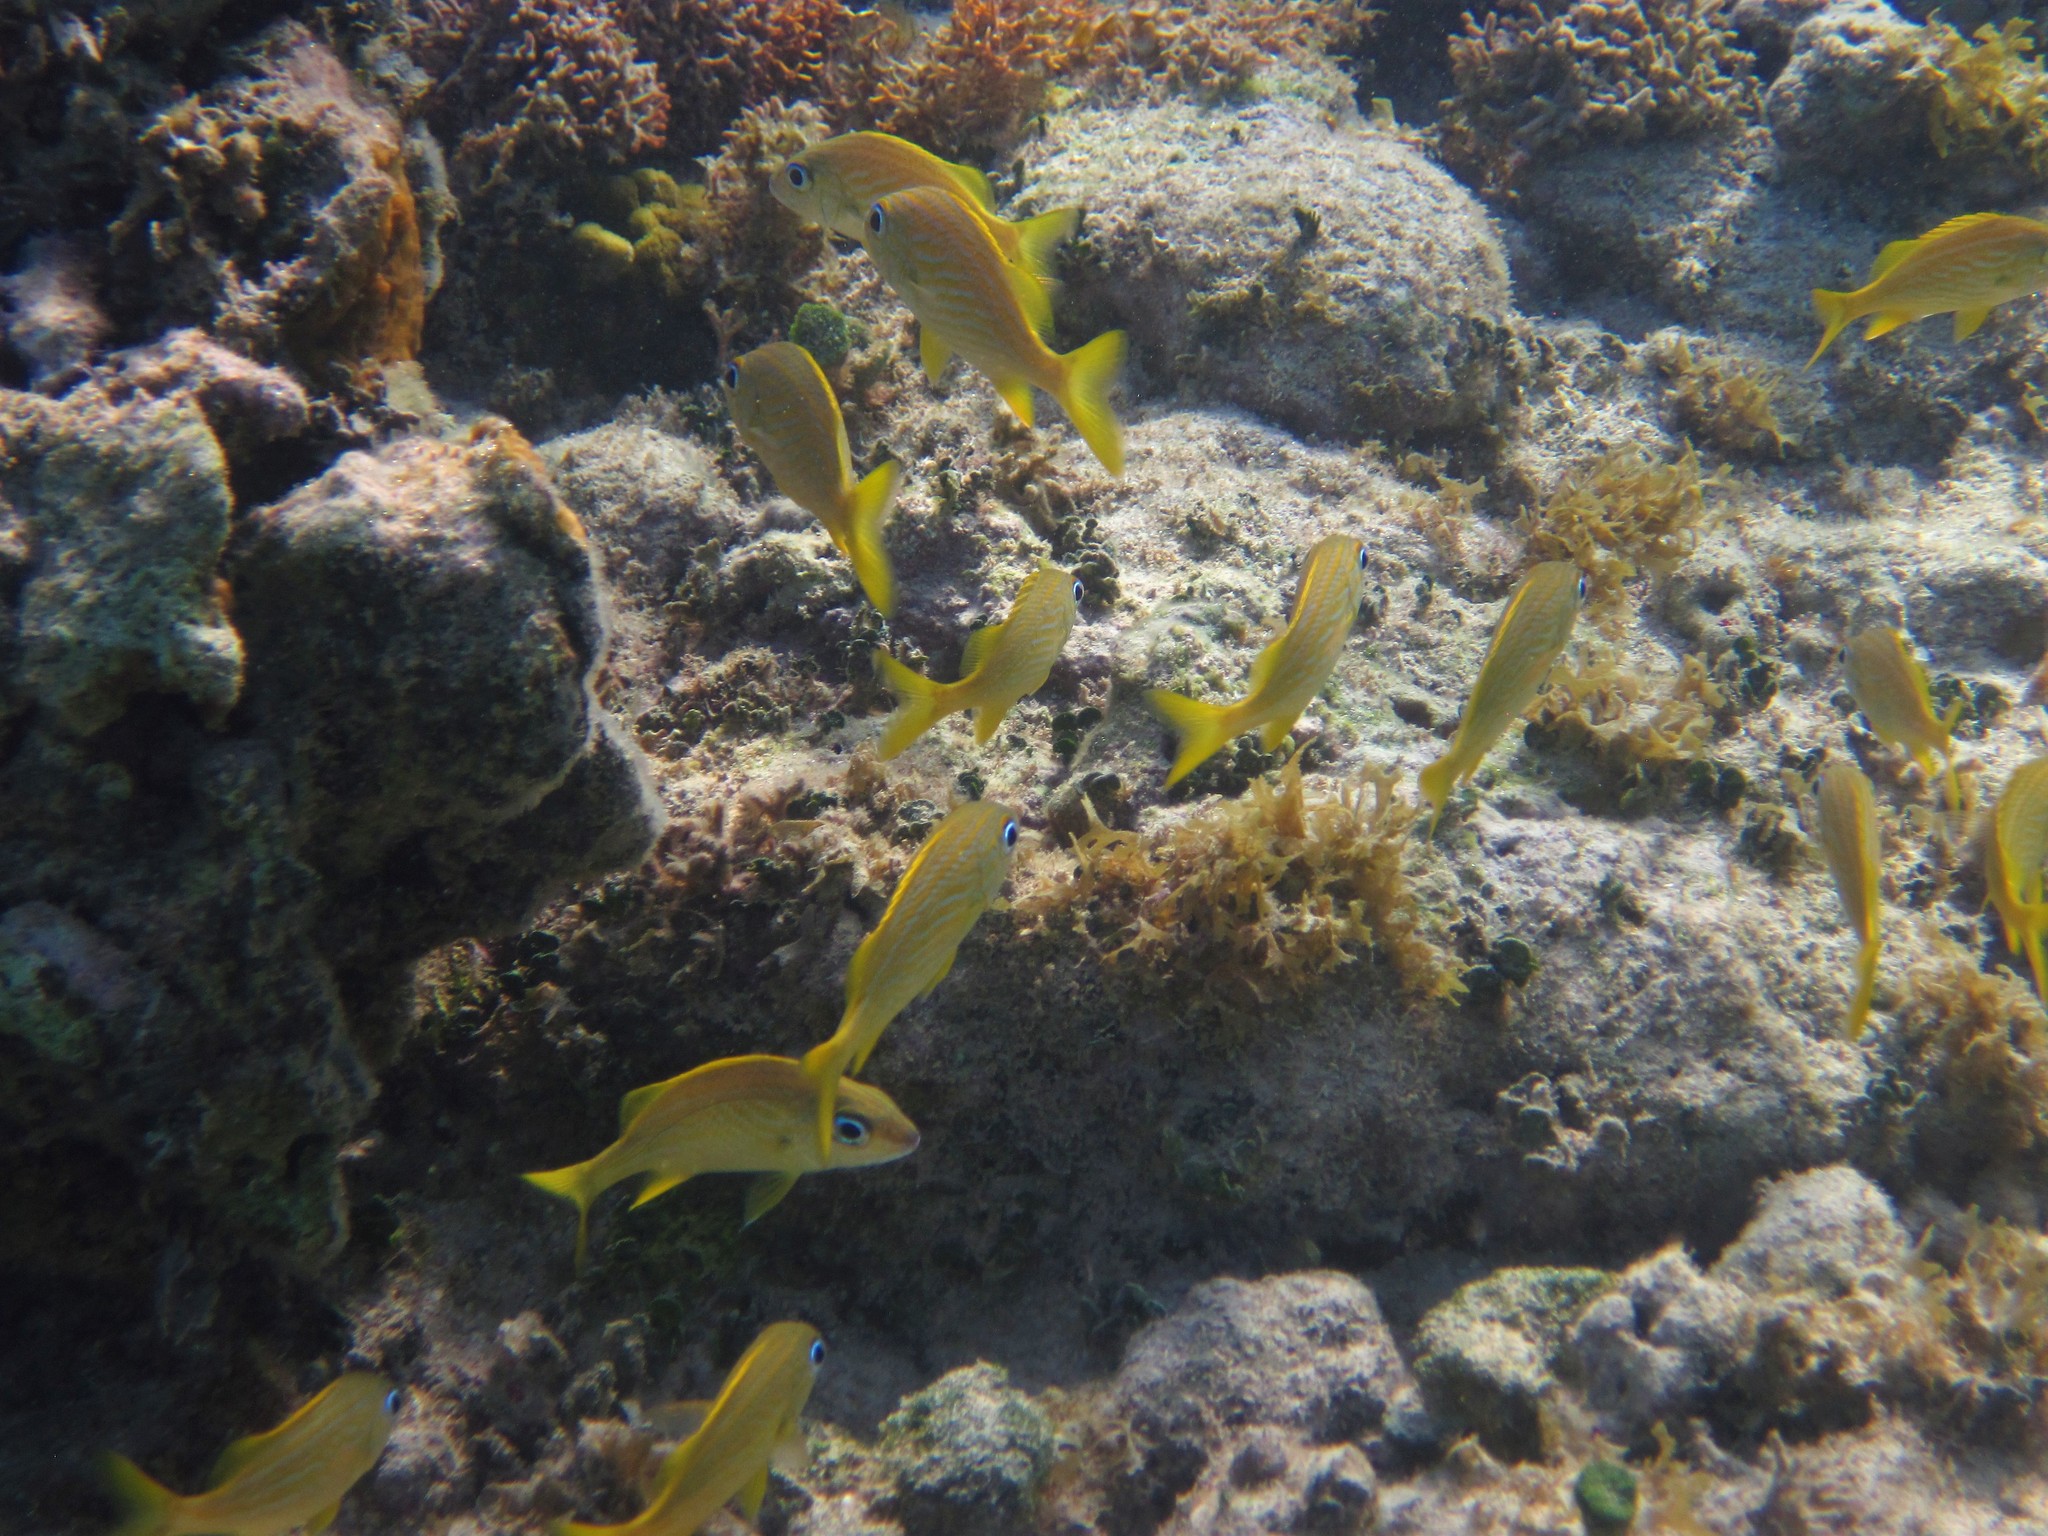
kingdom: Animalia
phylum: Chordata
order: Perciformes
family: Haemulidae
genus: Haemulon
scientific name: Haemulon flavolineatum
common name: French grunt
